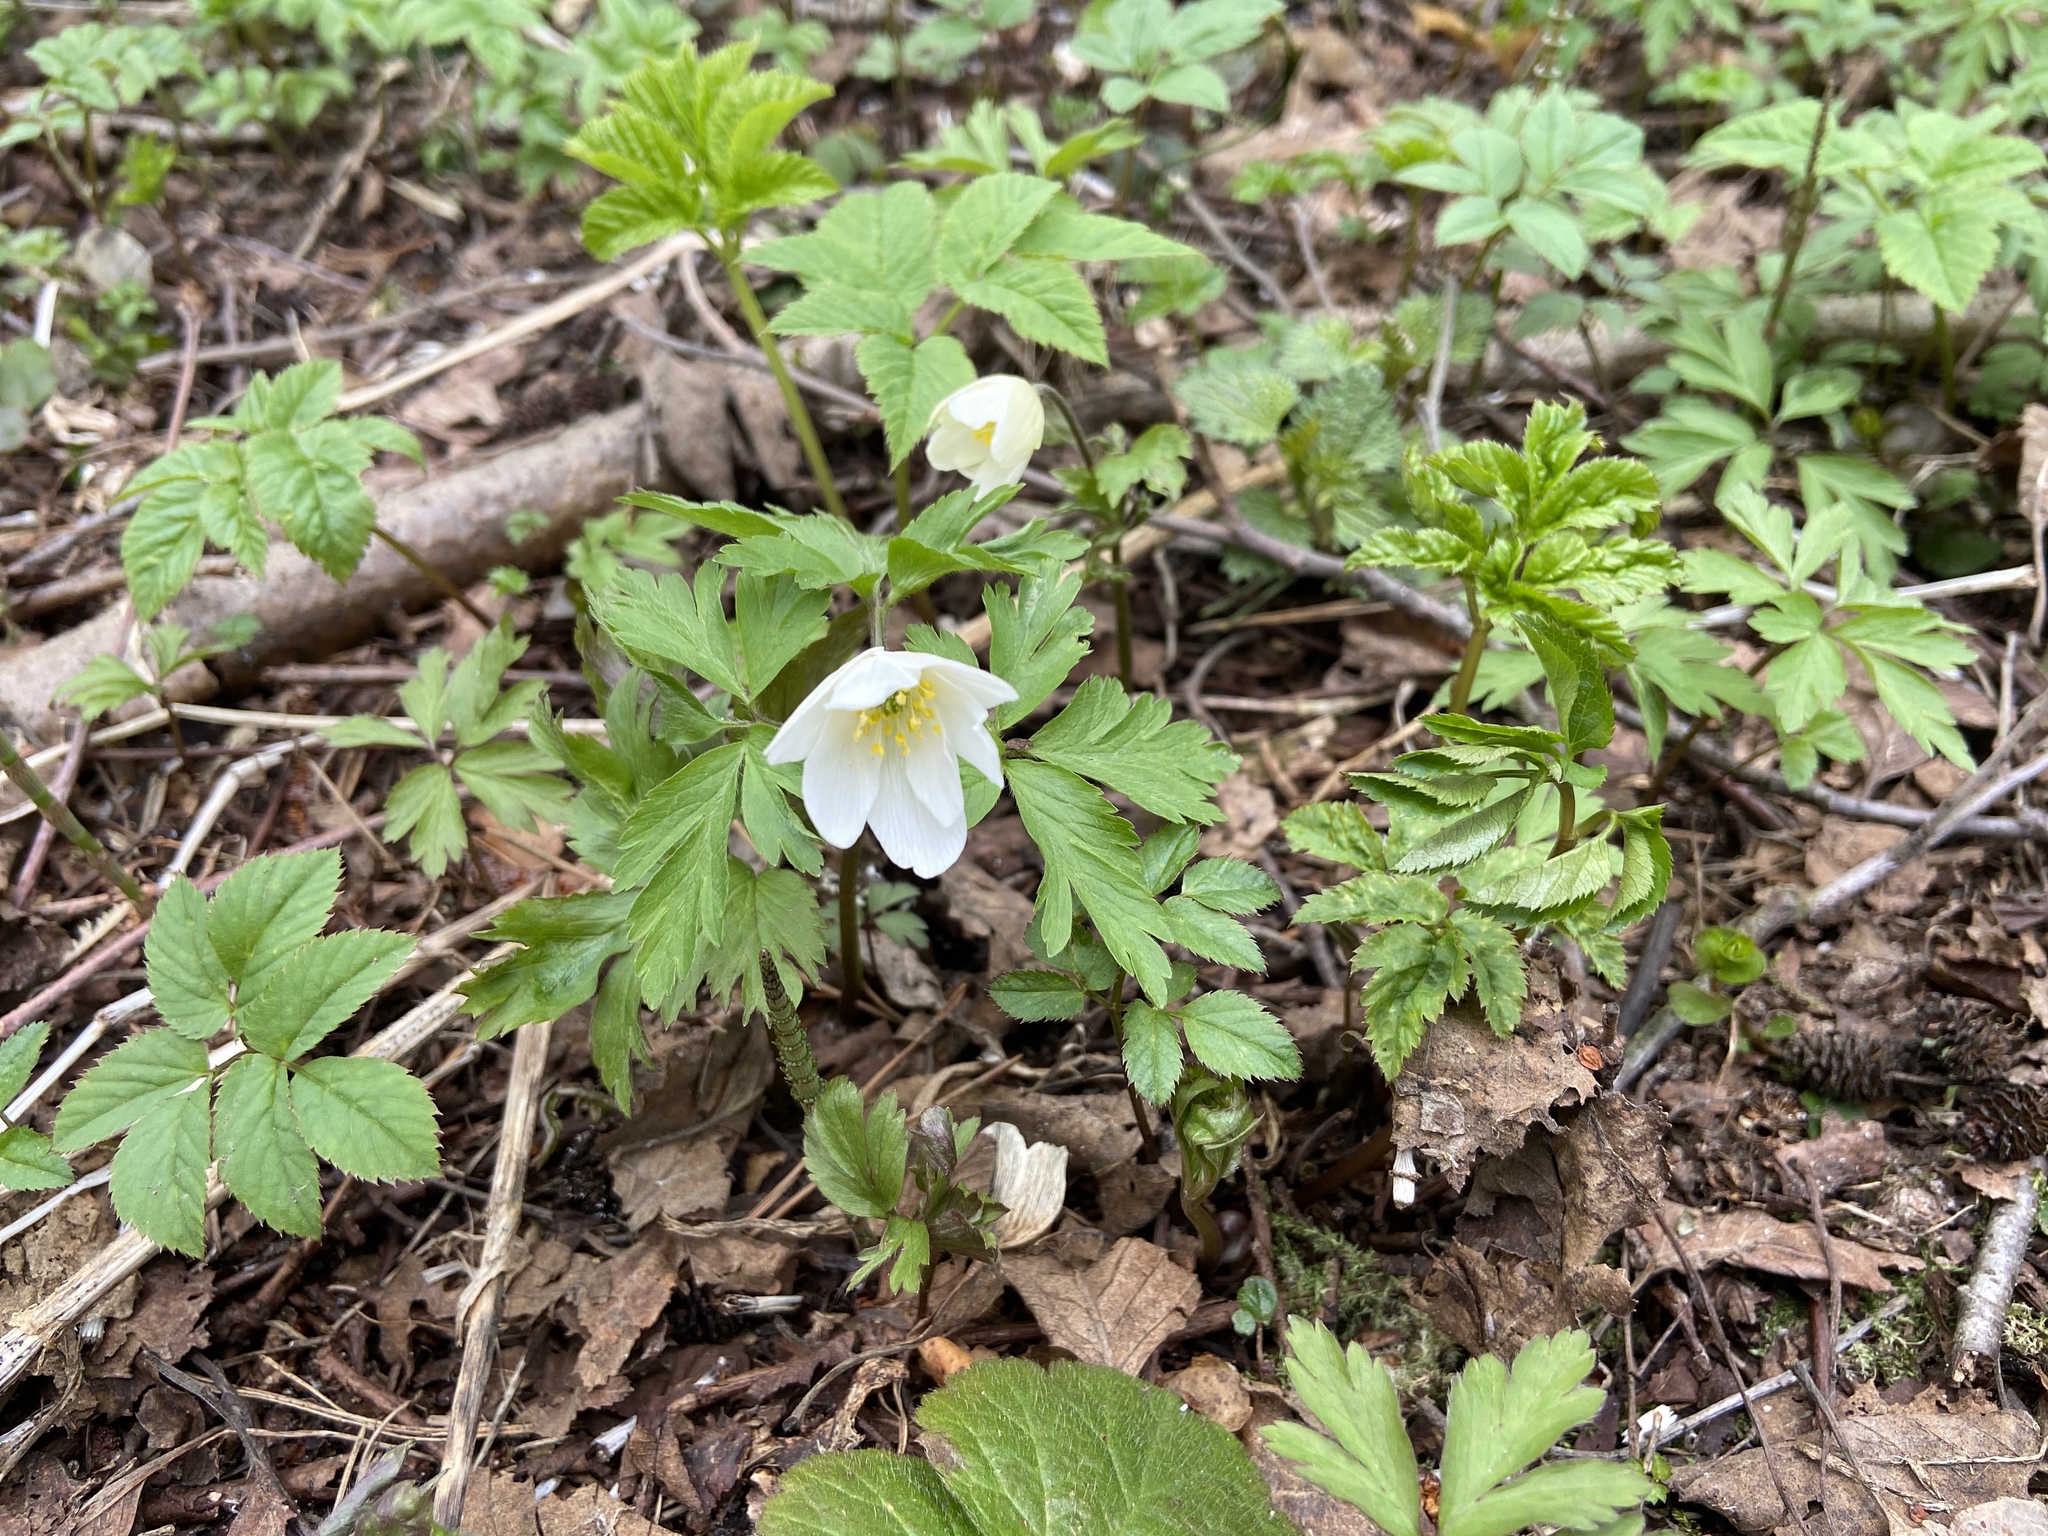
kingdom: Plantae
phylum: Tracheophyta
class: Magnoliopsida
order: Ranunculales
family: Ranunculaceae
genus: Anemone
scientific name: Anemone nemorosa
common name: Wood anemone
